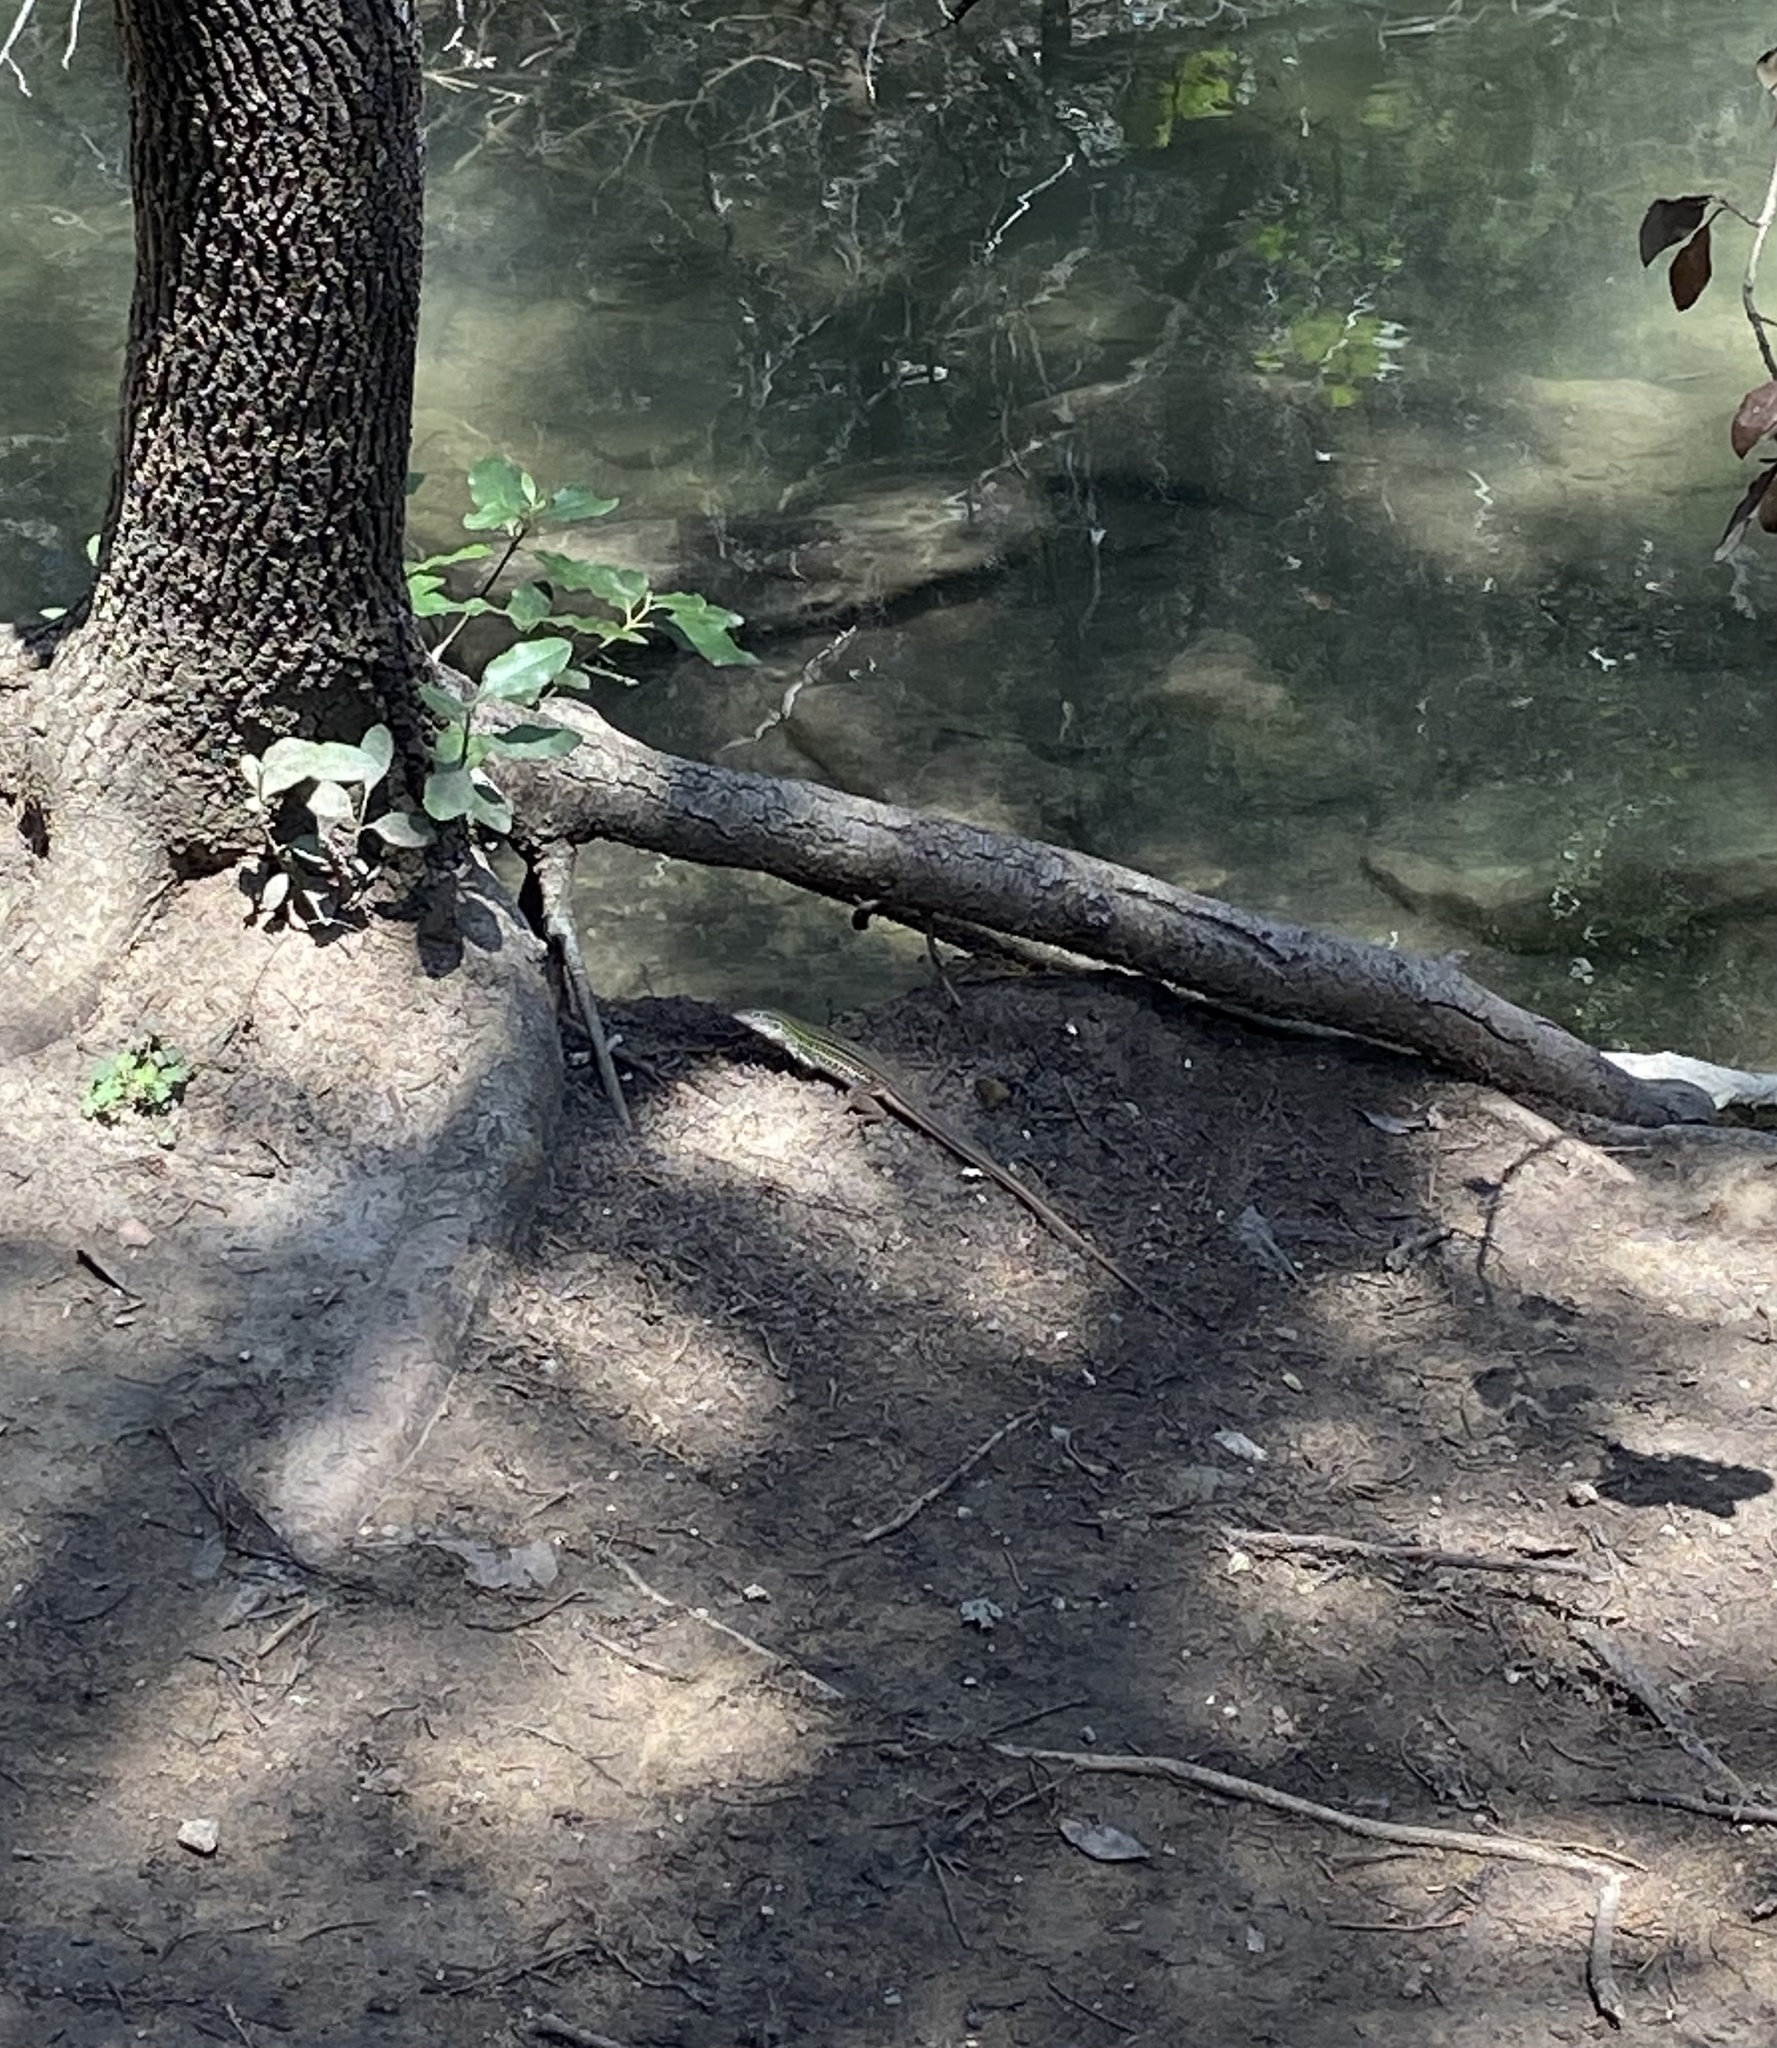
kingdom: Animalia
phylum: Chordata
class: Squamata
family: Teiidae
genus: Aspidoscelis
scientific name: Aspidoscelis gularis
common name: Eastern spotted whiptail
